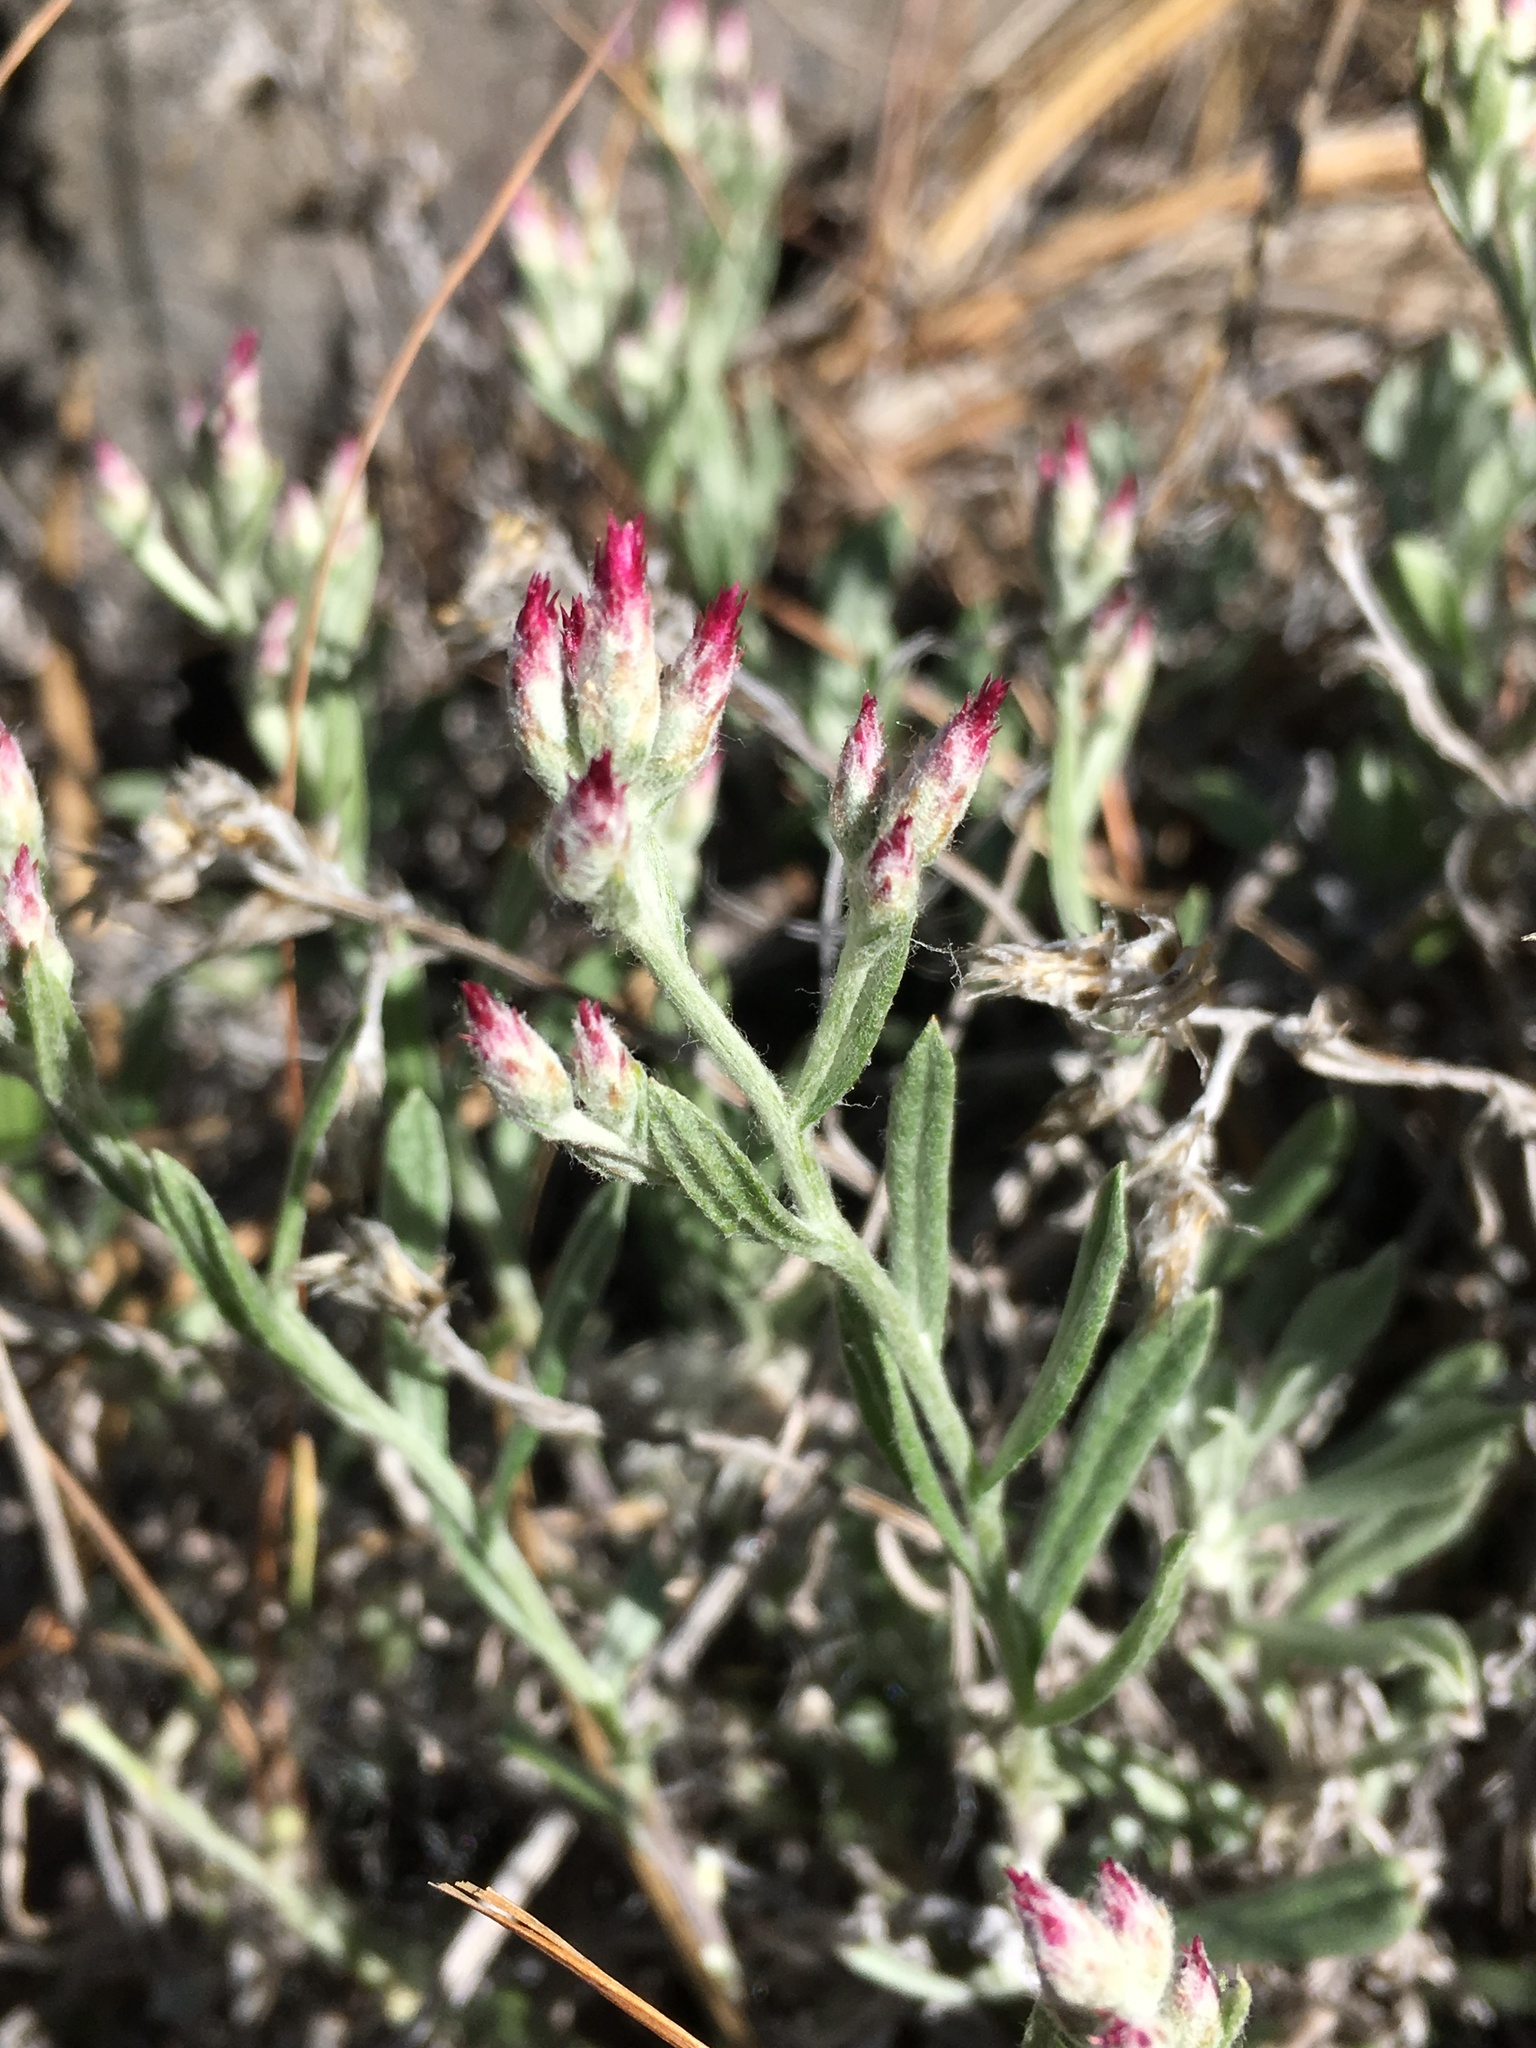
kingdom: Plantae
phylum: Tracheophyta
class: Magnoliopsida
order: Asterales
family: Asteraceae
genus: Antennaria
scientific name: Antennaria geyeri
